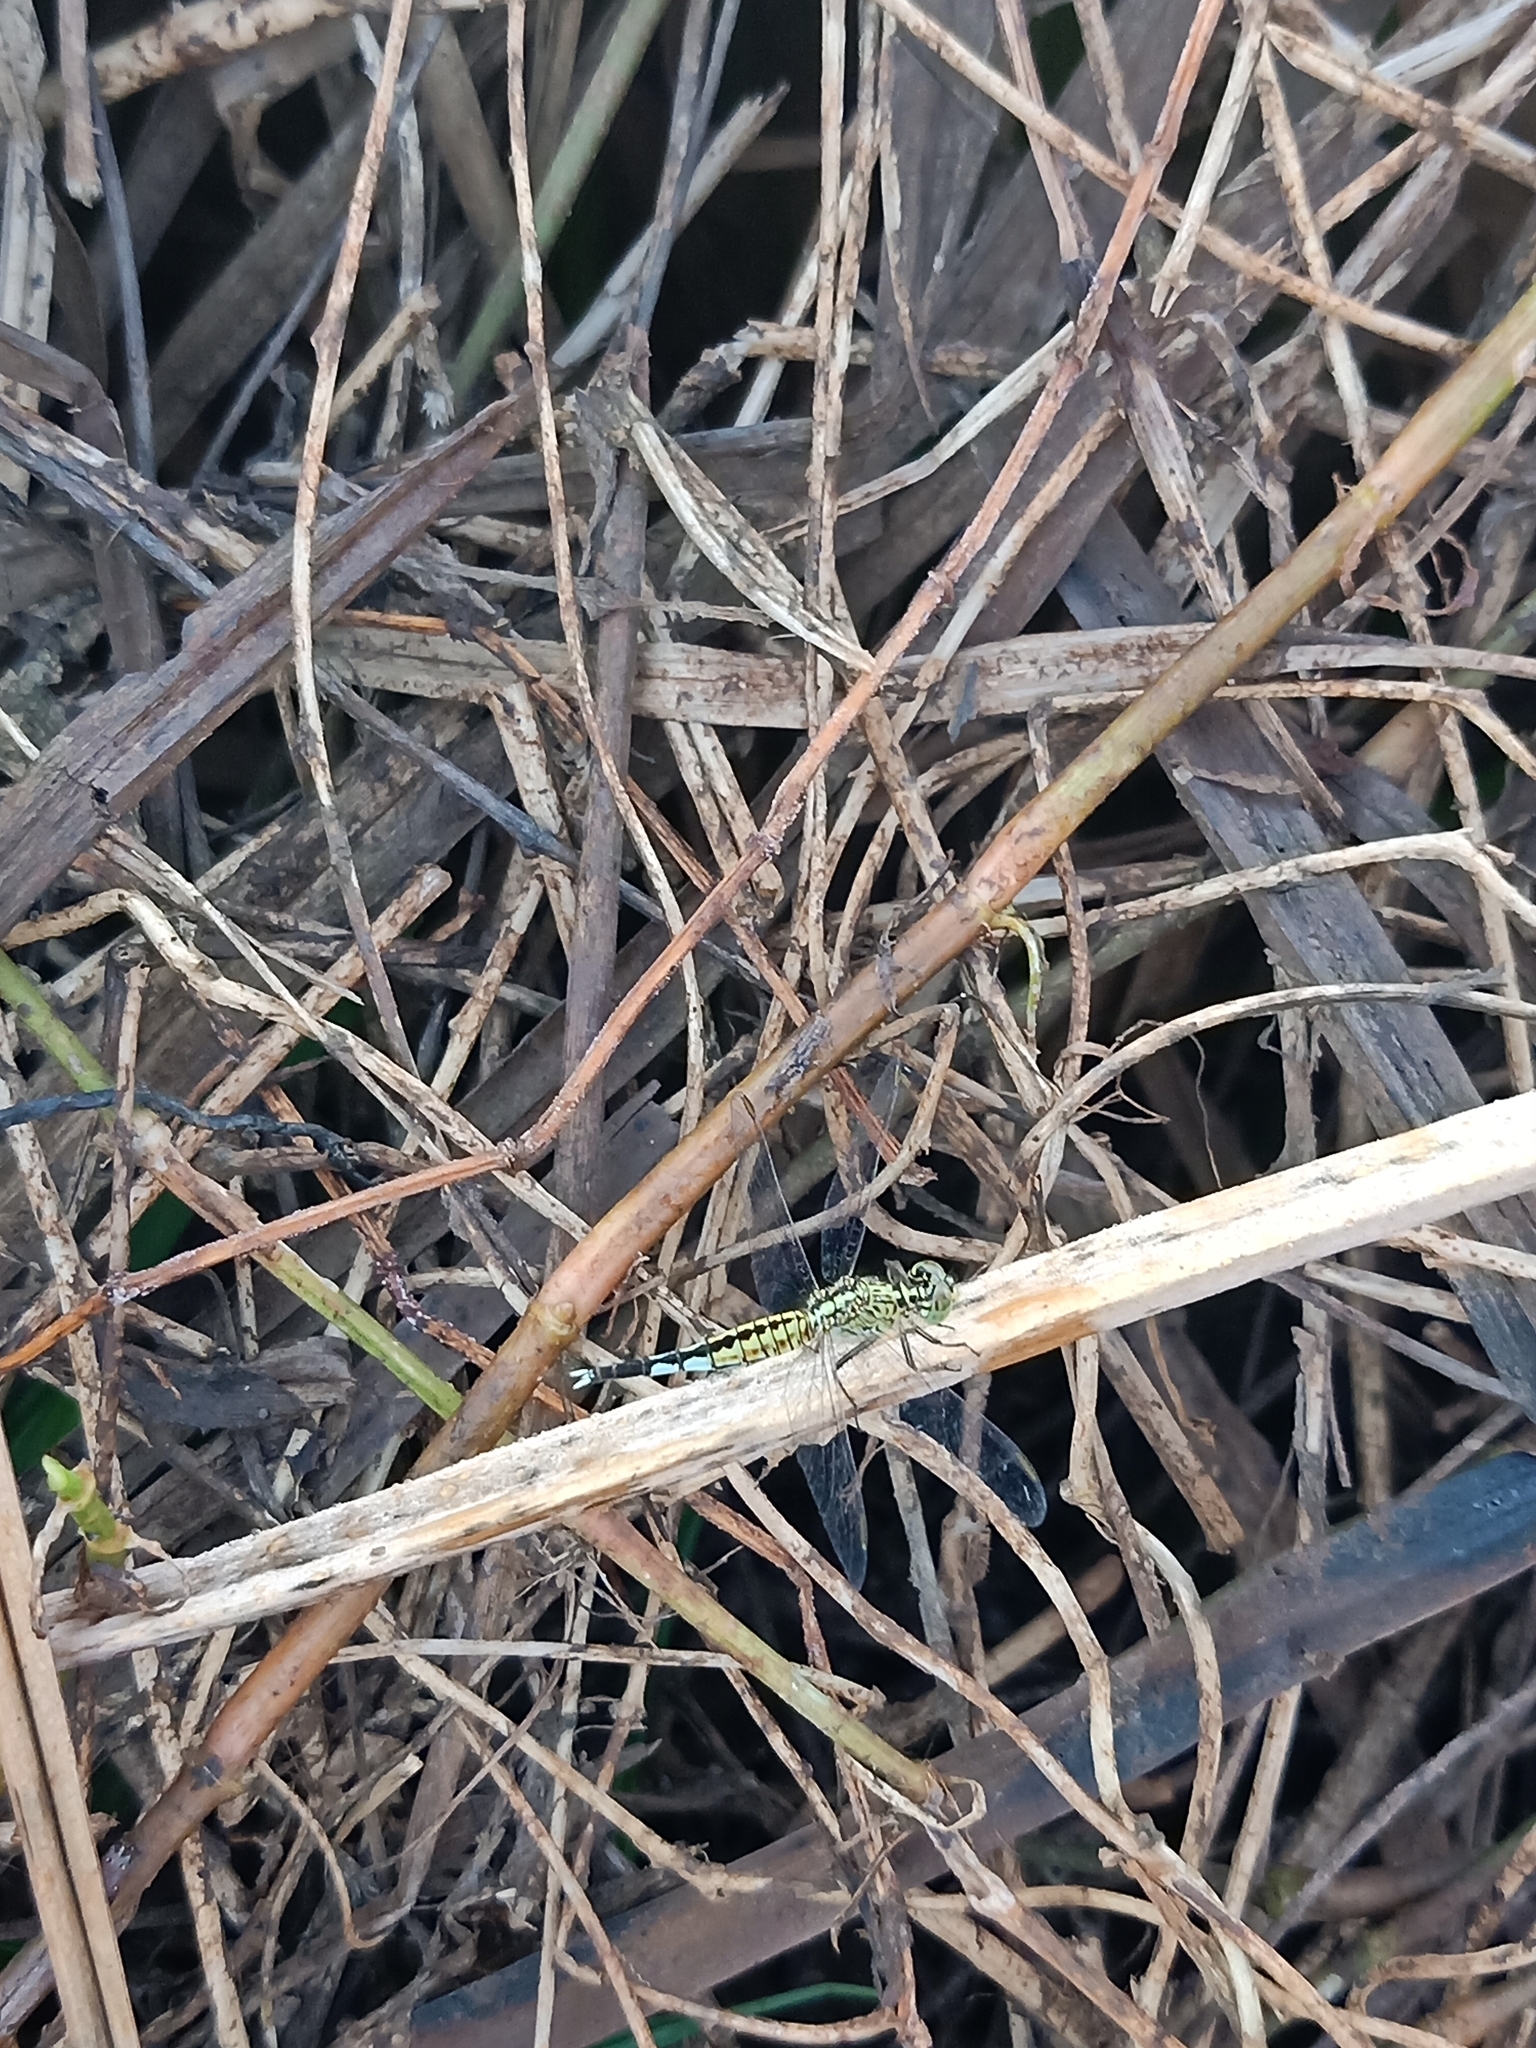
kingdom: Animalia
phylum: Arthropoda
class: Insecta
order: Odonata
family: Libellulidae
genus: Acisoma
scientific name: Acisoma panorpoides
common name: Asian pintail
